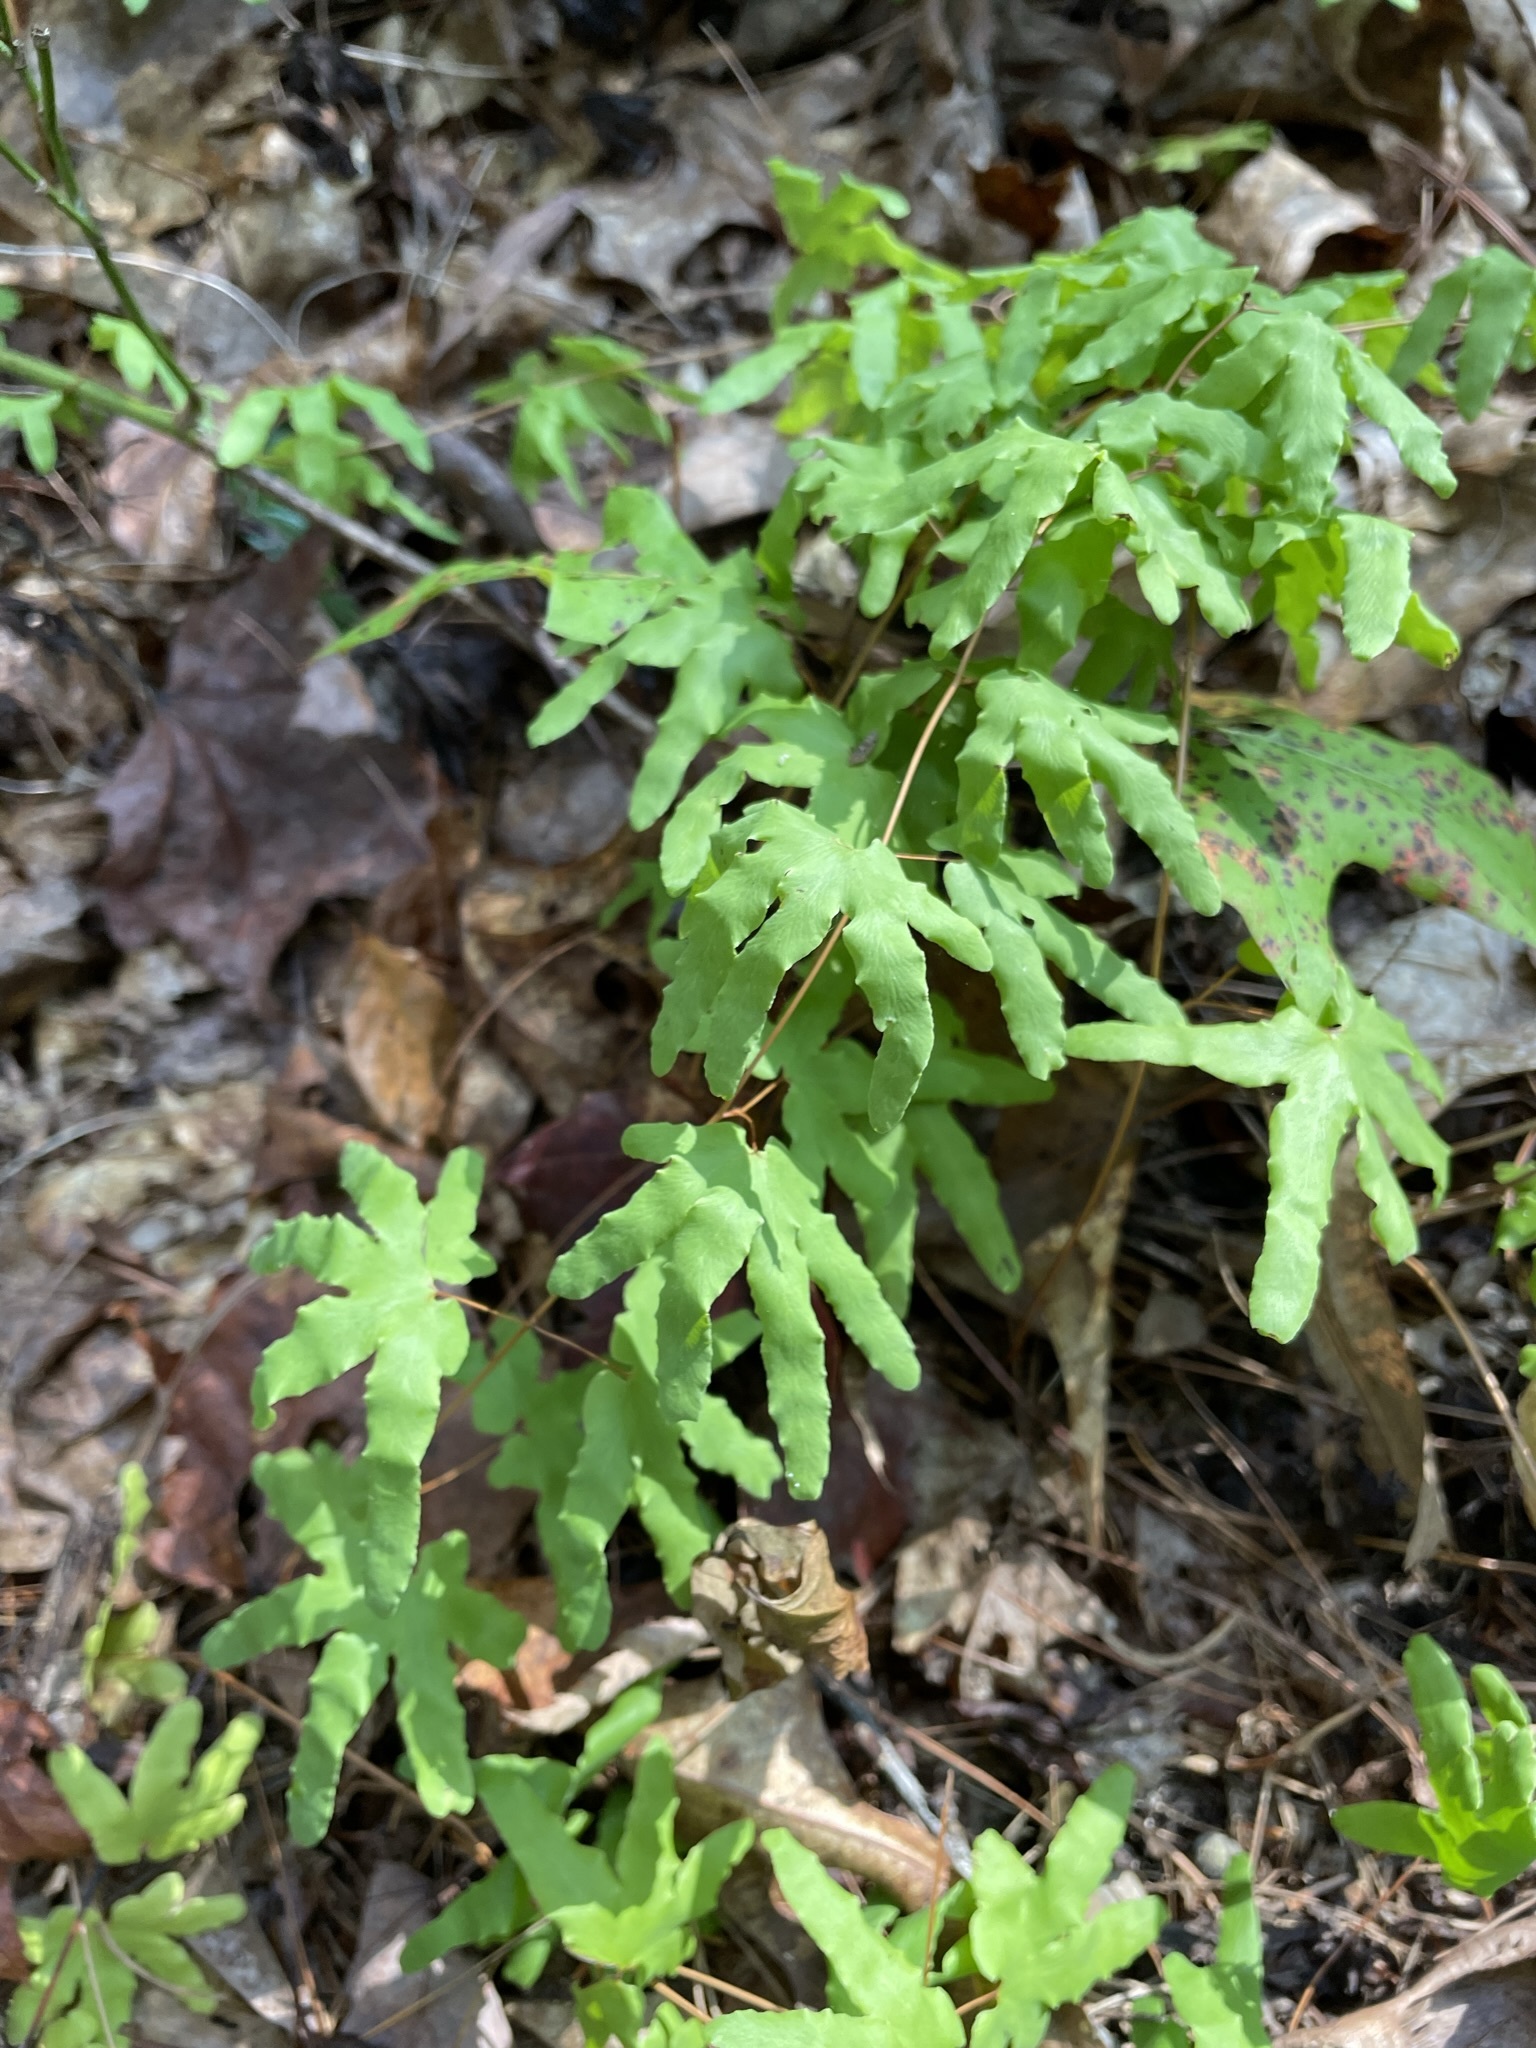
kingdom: Plantae
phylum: Tracheophyta
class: Polypodiopsida
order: Schizaeales
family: Lygodiaceae
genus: Lygodium
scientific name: Lygodium palmatum
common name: American climbing fern
